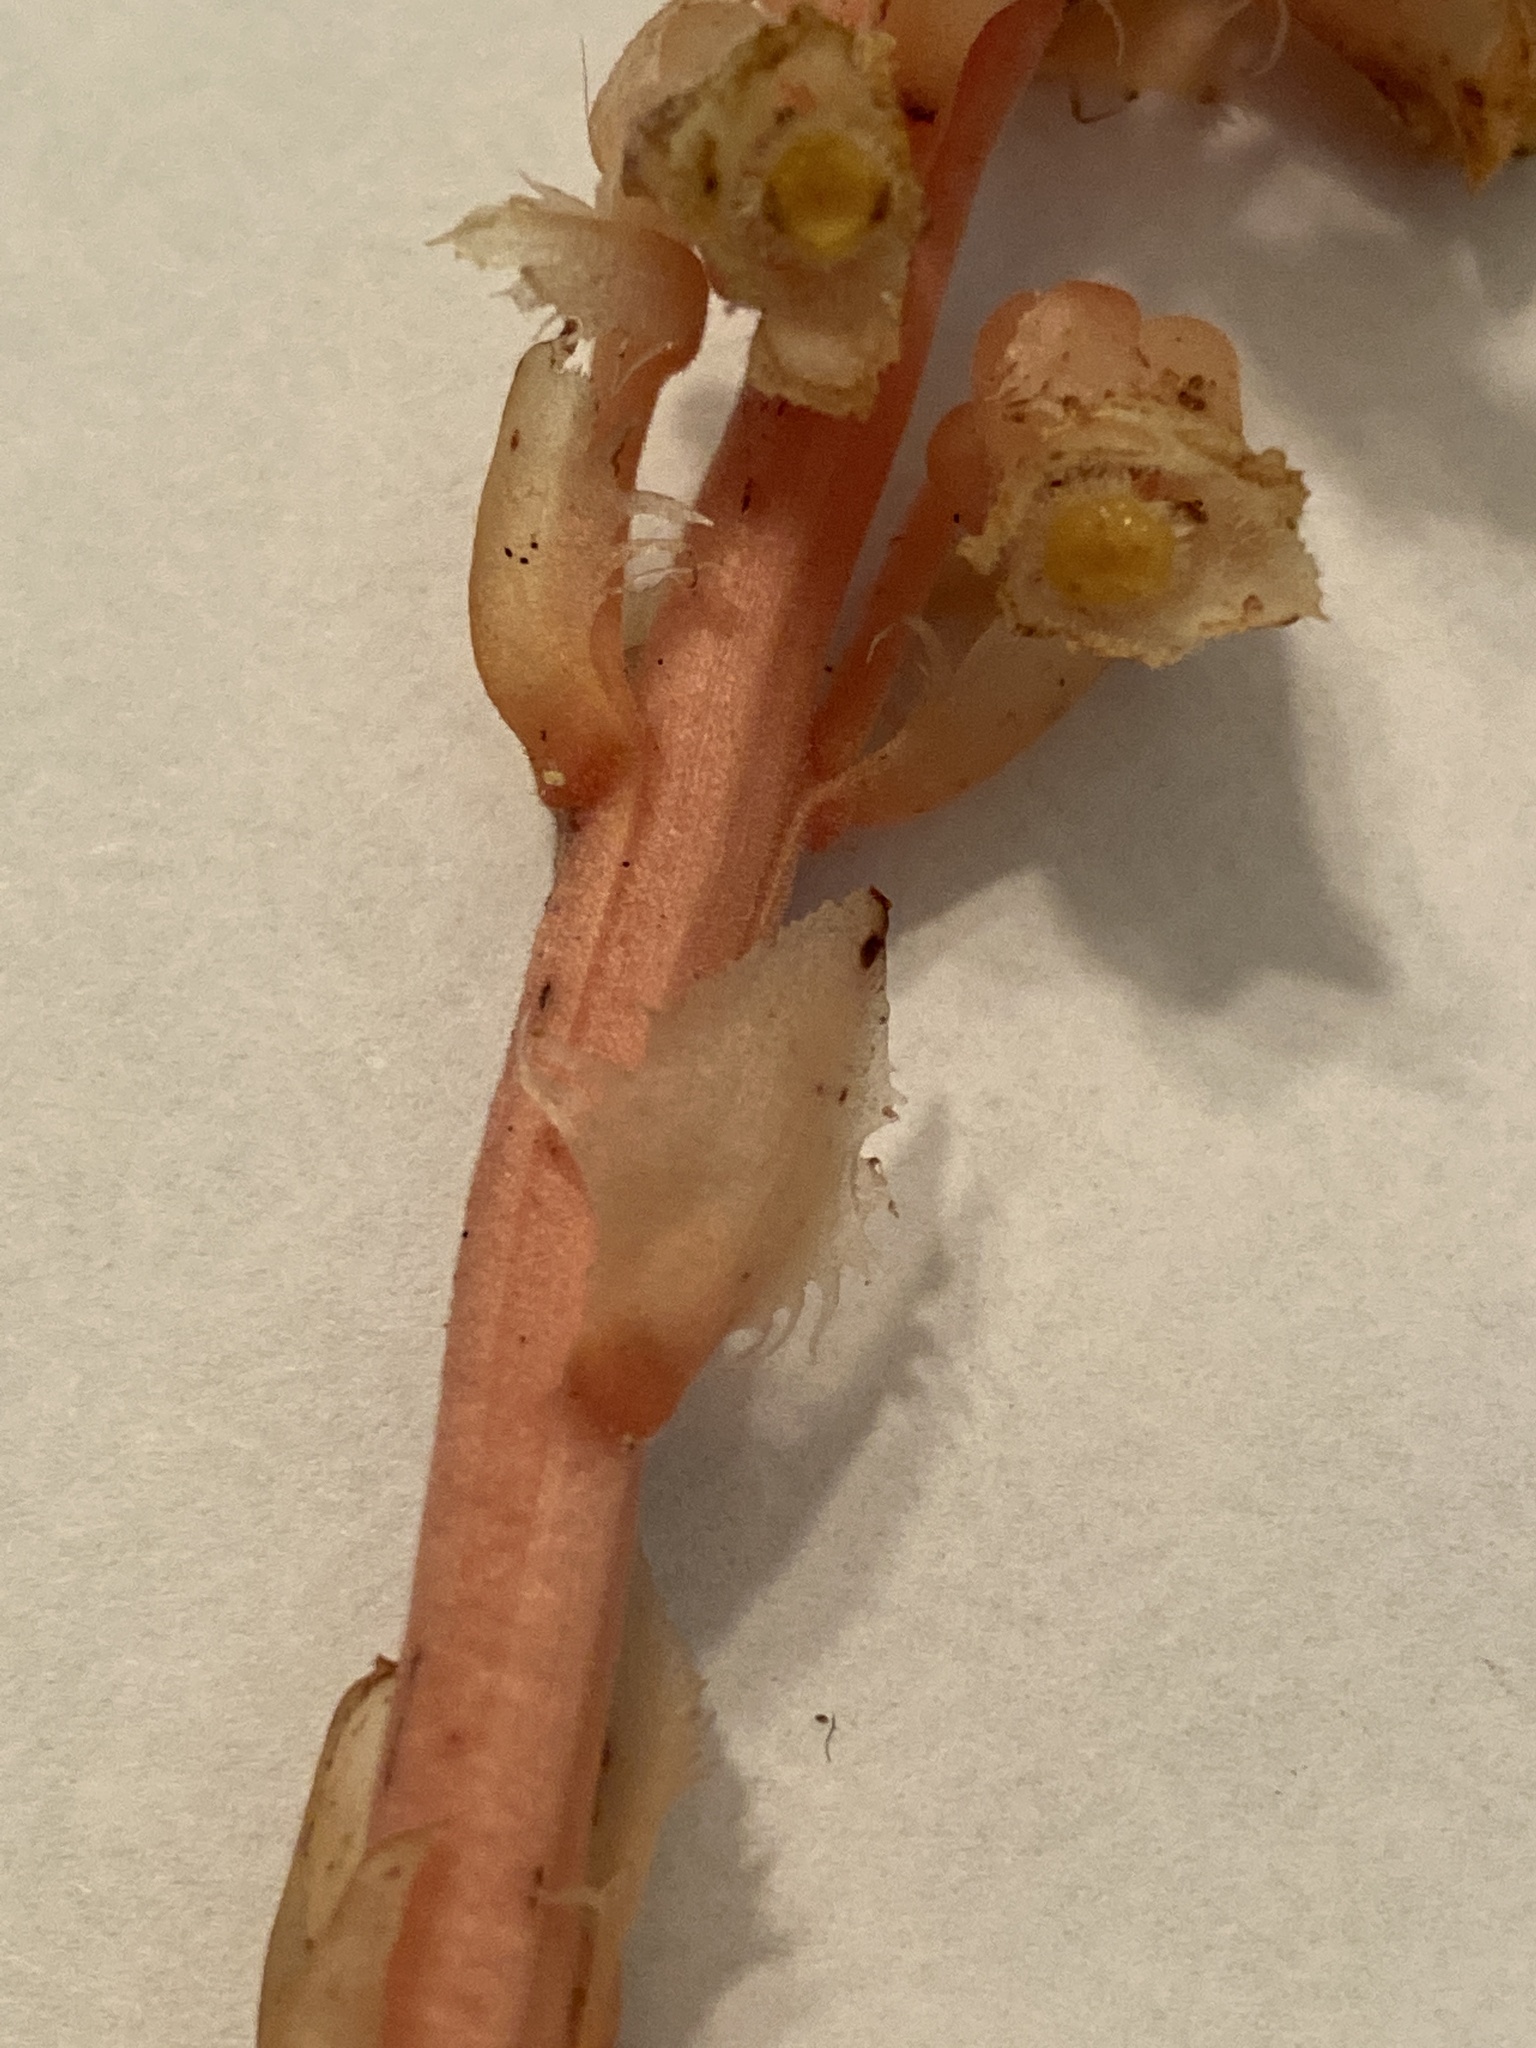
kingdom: Plantae
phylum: Tracheophyta
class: Magnoliopsida
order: Ericales
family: Ericaceae
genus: Hypopitys
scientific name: Hypopitys monotropa
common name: Yellow bird's-nest
